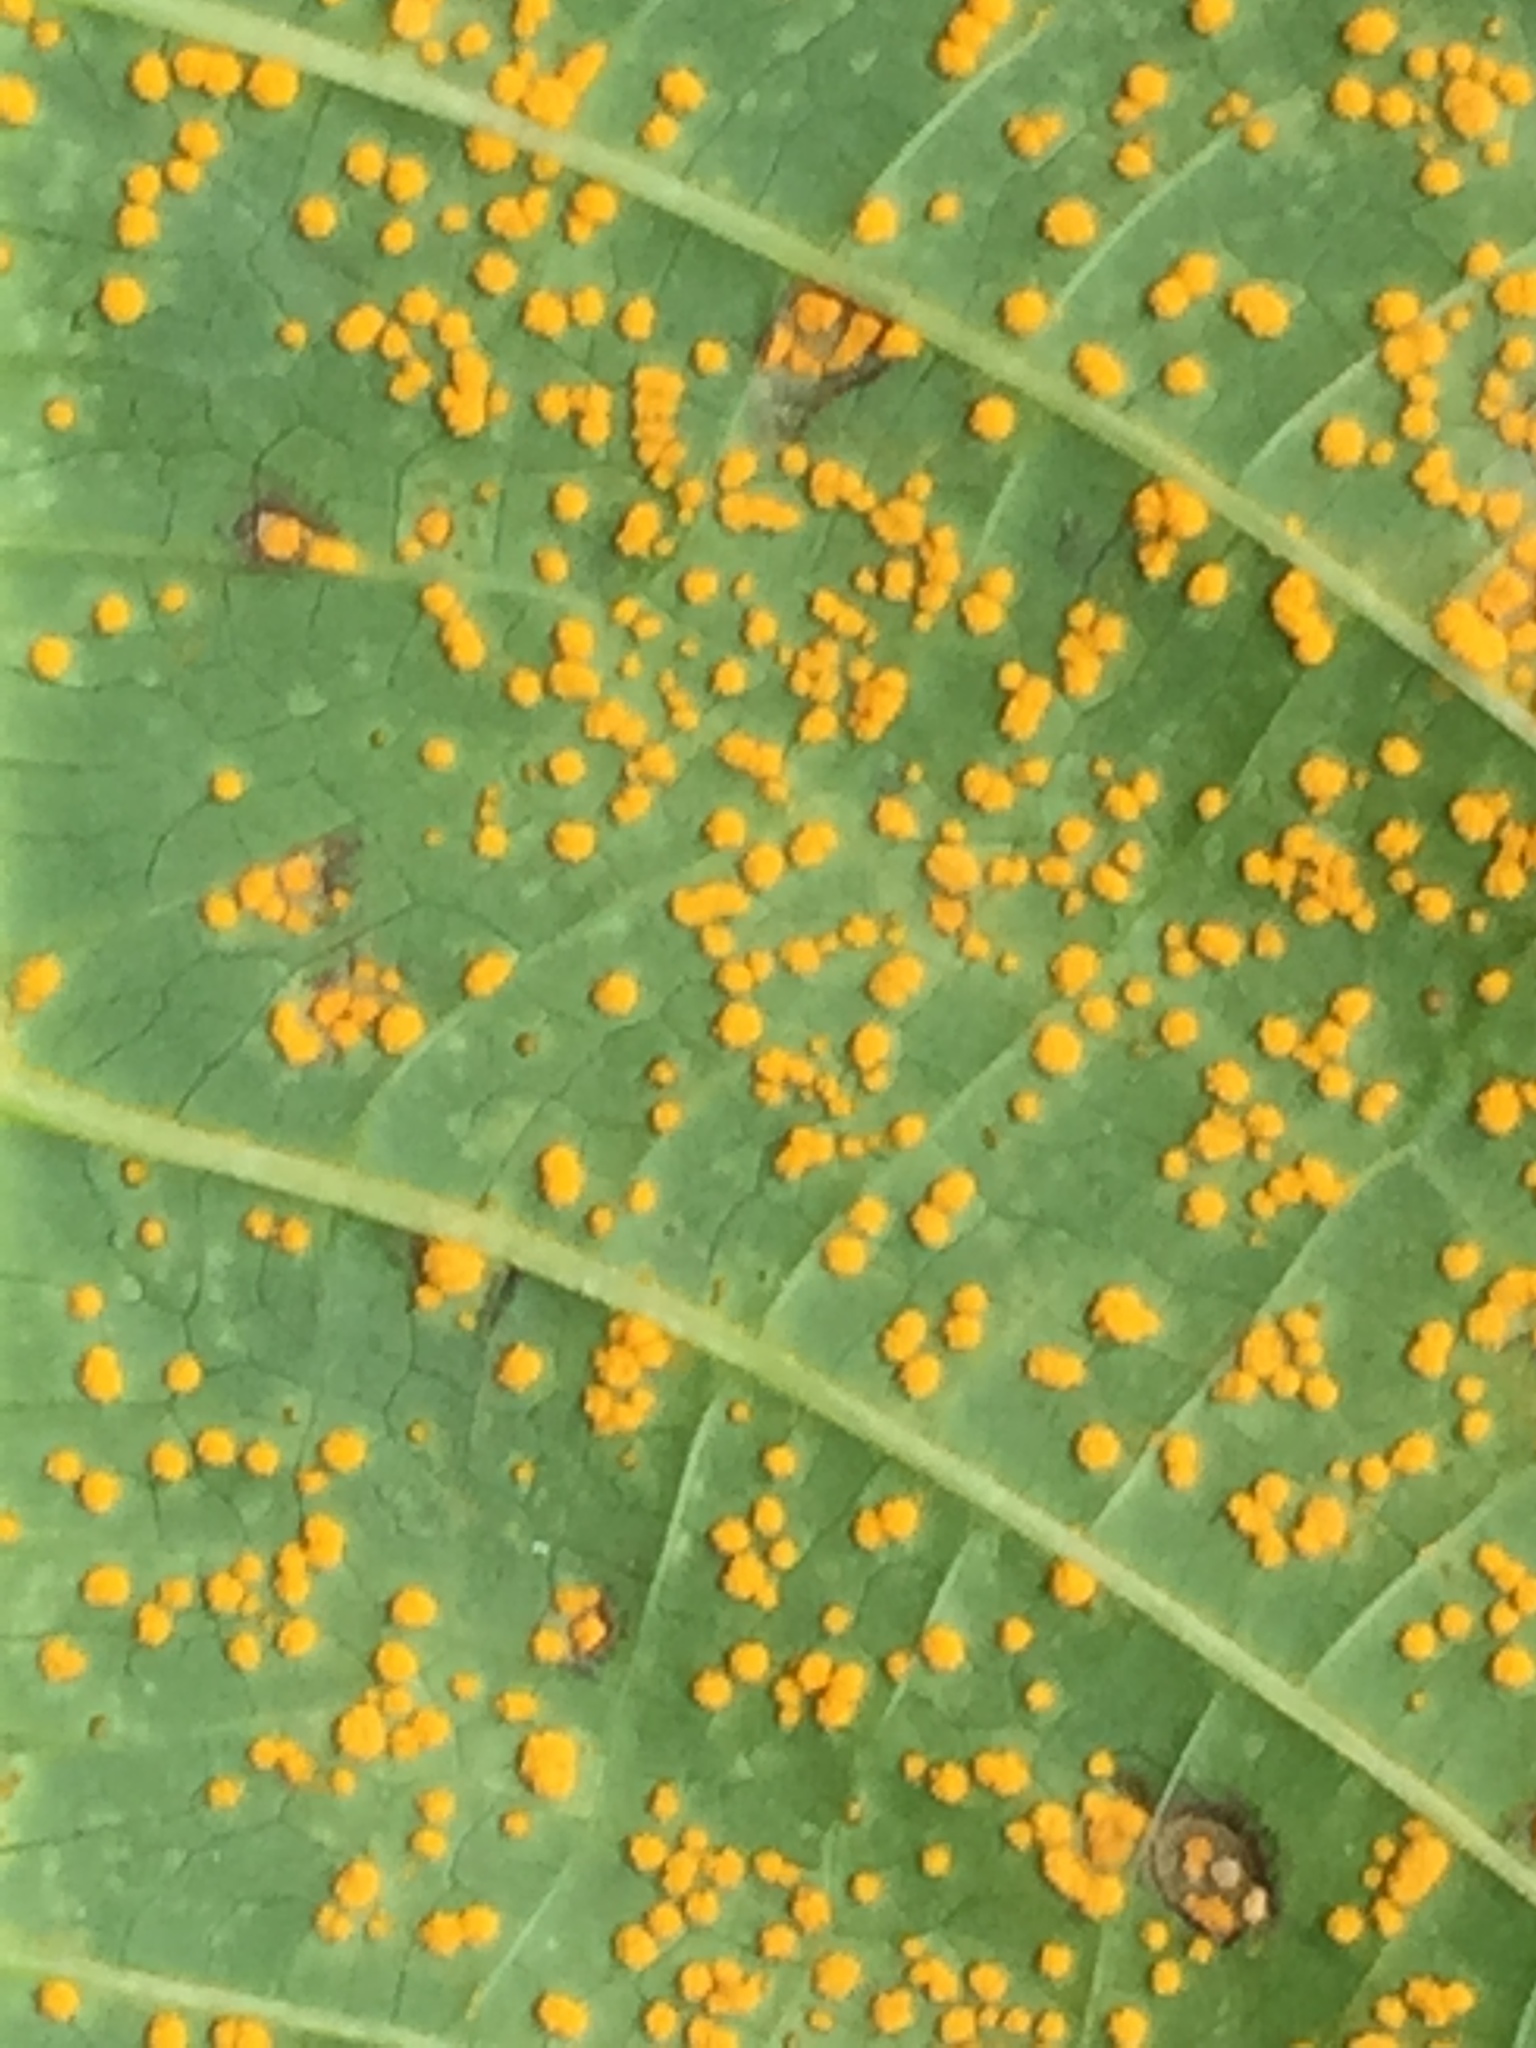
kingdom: Fungi
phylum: Basidiomycota
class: Pucciniomycetes
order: Pucciniales
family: Melampsoraceae
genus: Melampsora
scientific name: Melampsora ricini
